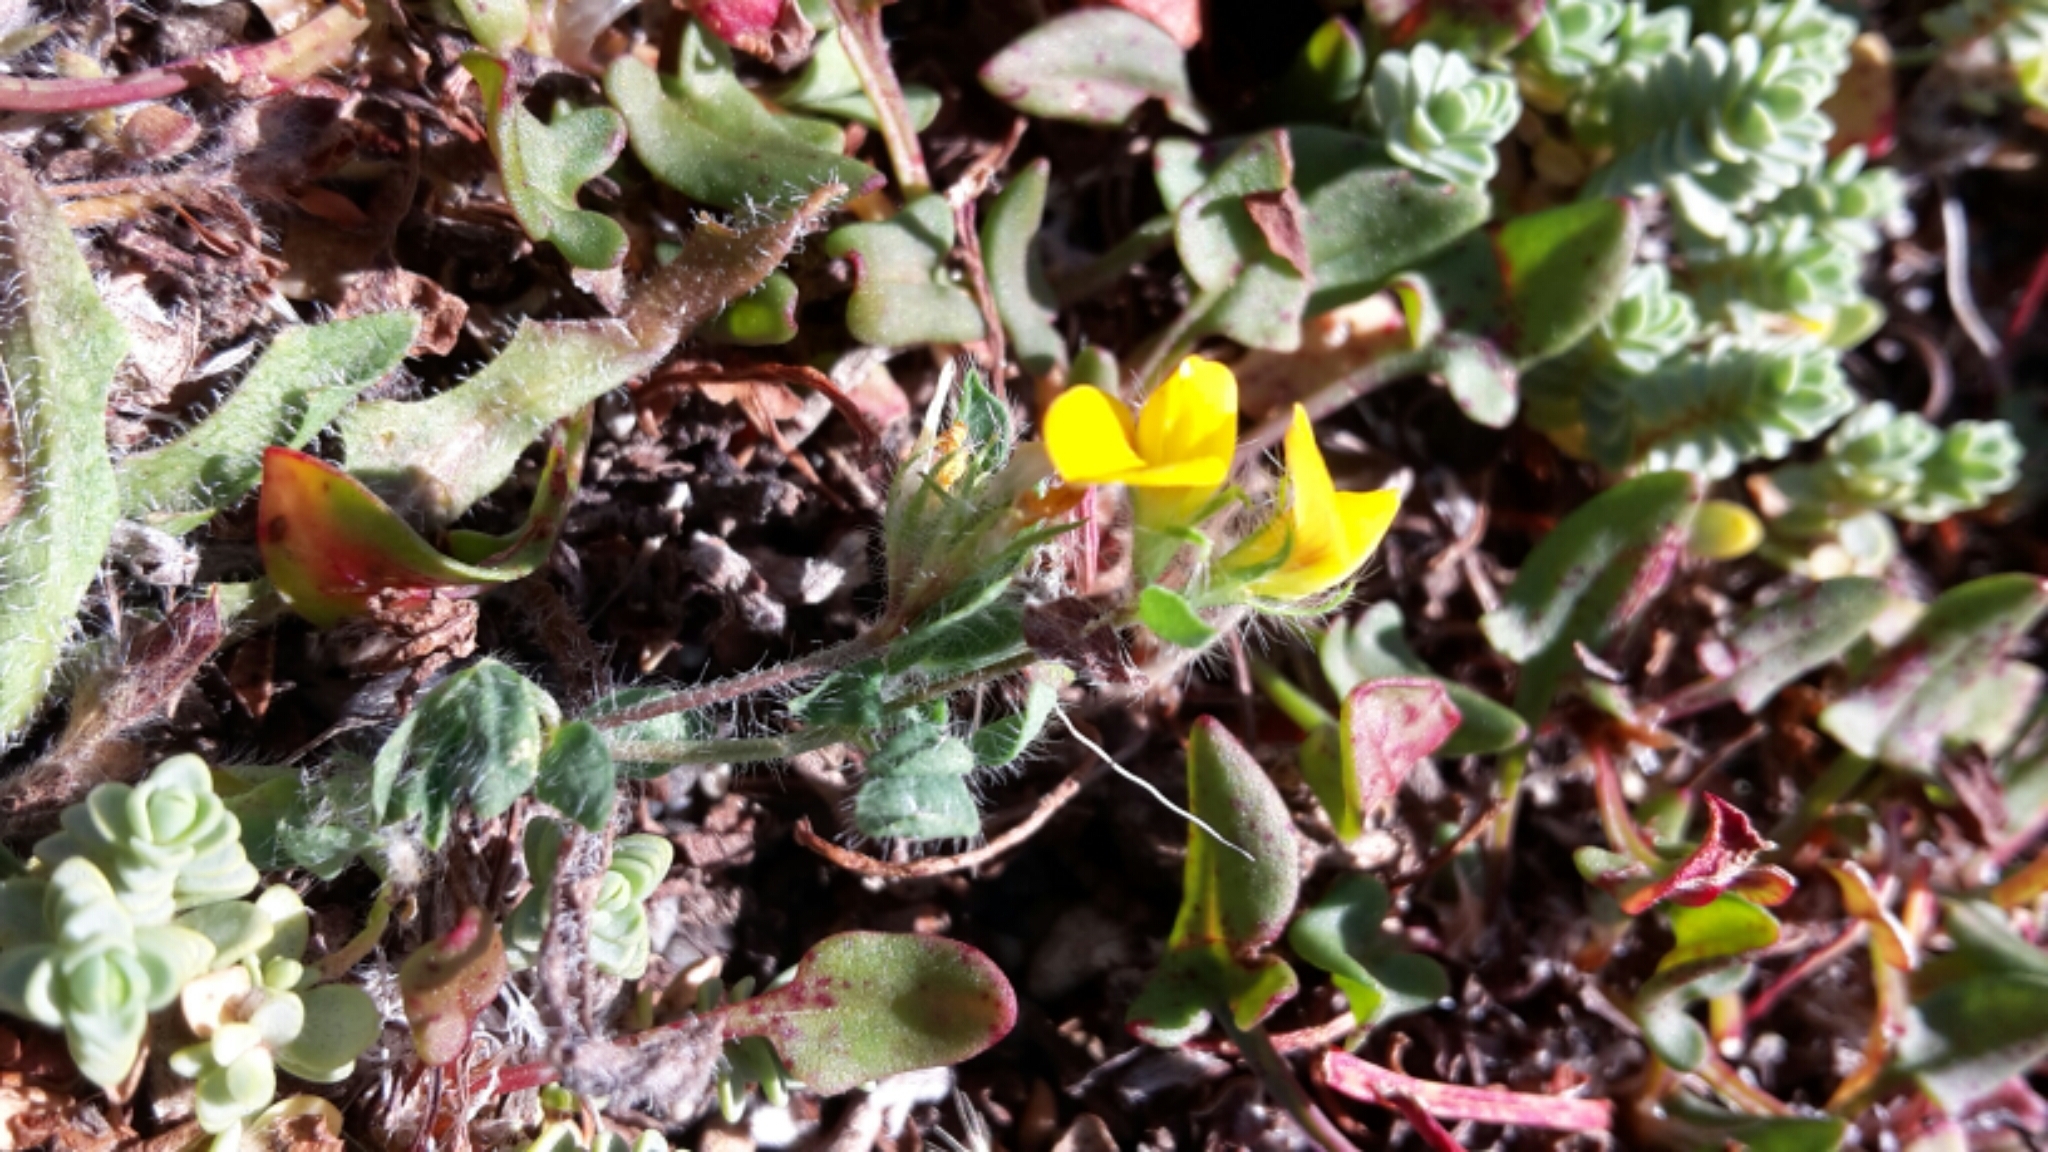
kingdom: Plantae
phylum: Tracheophyta
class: Magnoliopsida
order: Fabales
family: Fabaceae
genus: Lotus
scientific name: Lotus subbiflorus
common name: Hairy bird's-foot trefoil
